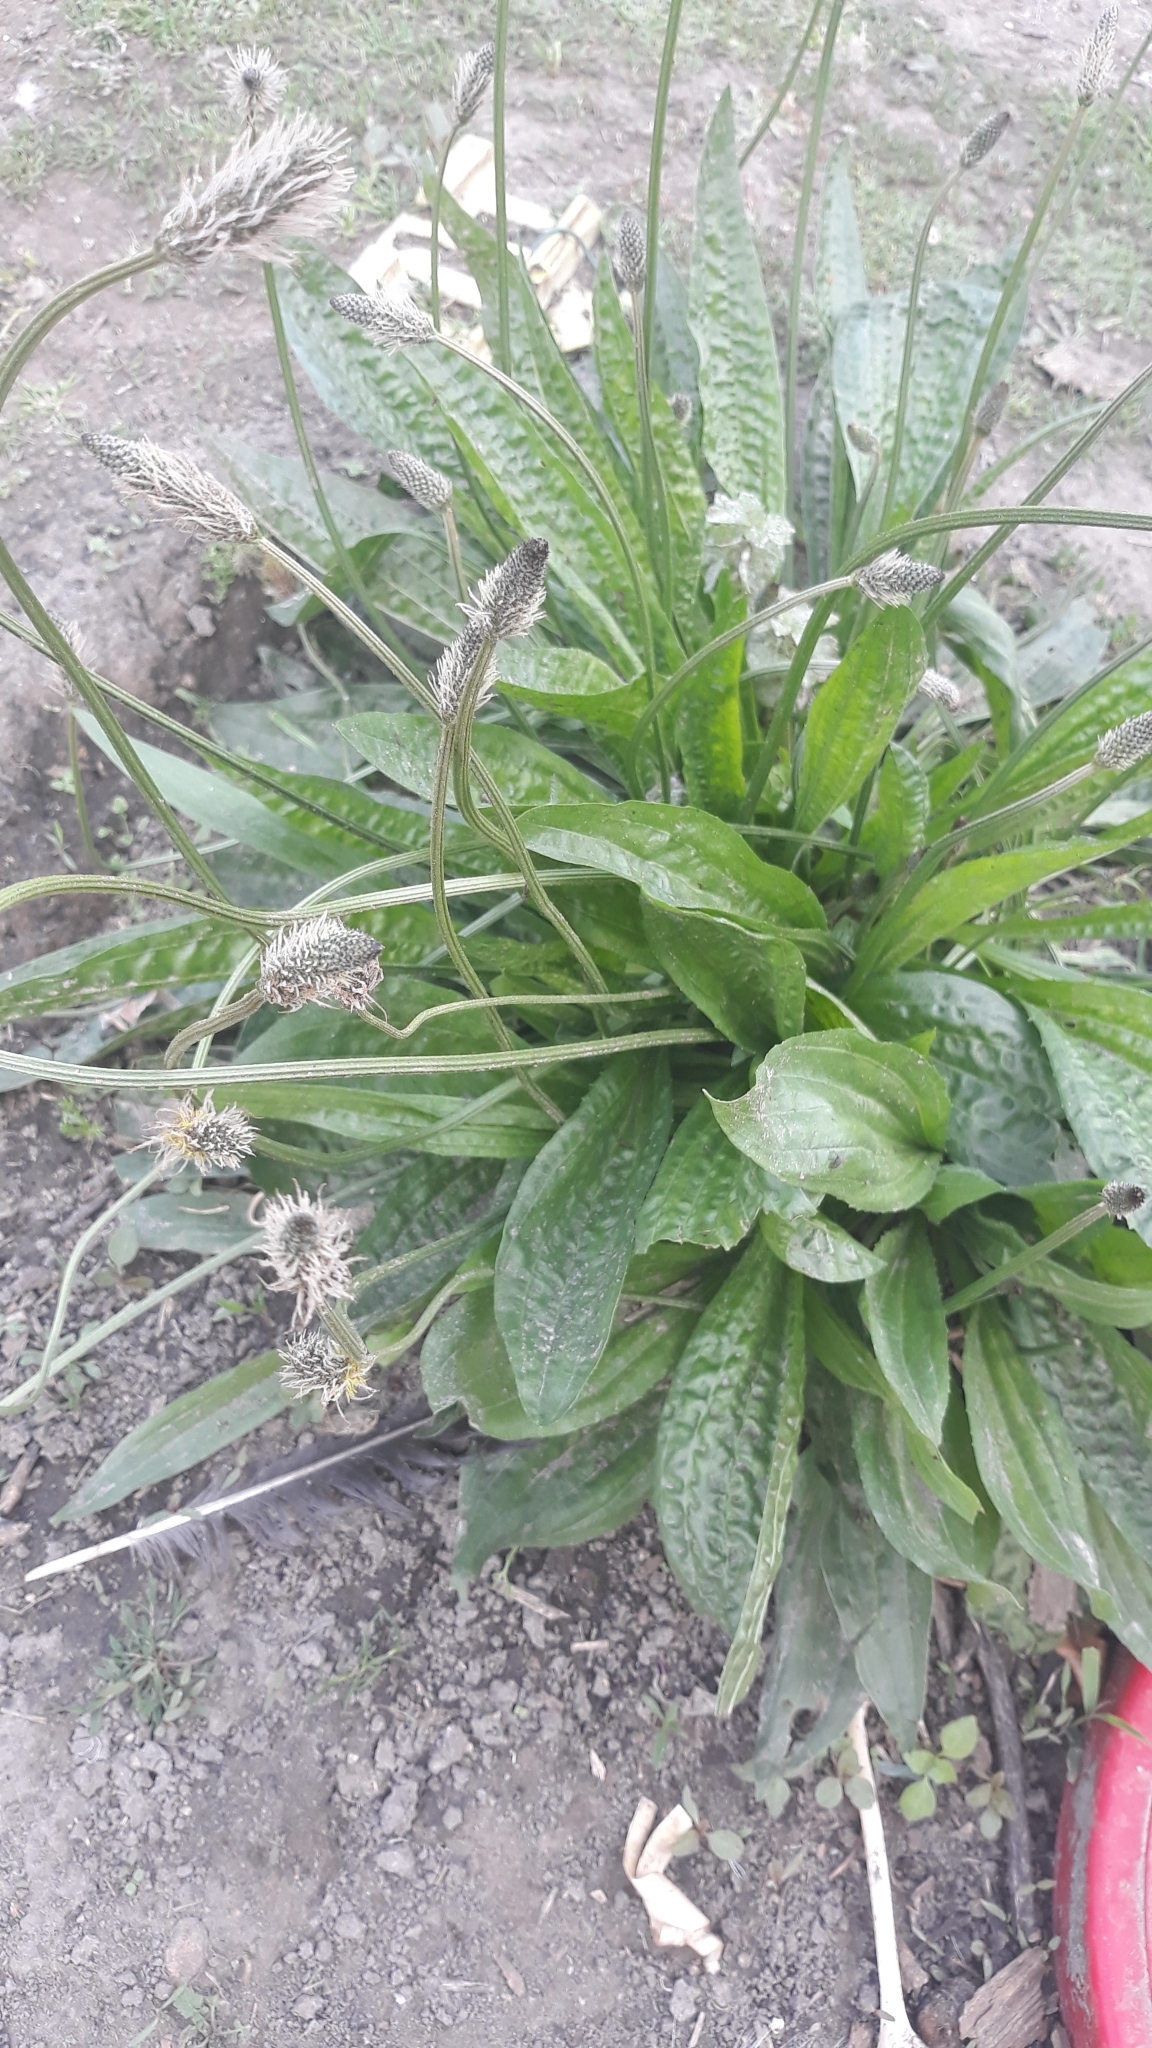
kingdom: Plantae
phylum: Tracheophyta
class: Magnoliopsida
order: Lamiales
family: Plantaginaceae
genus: Plantago
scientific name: Plantago lanceolata
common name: Ribwort plantain
